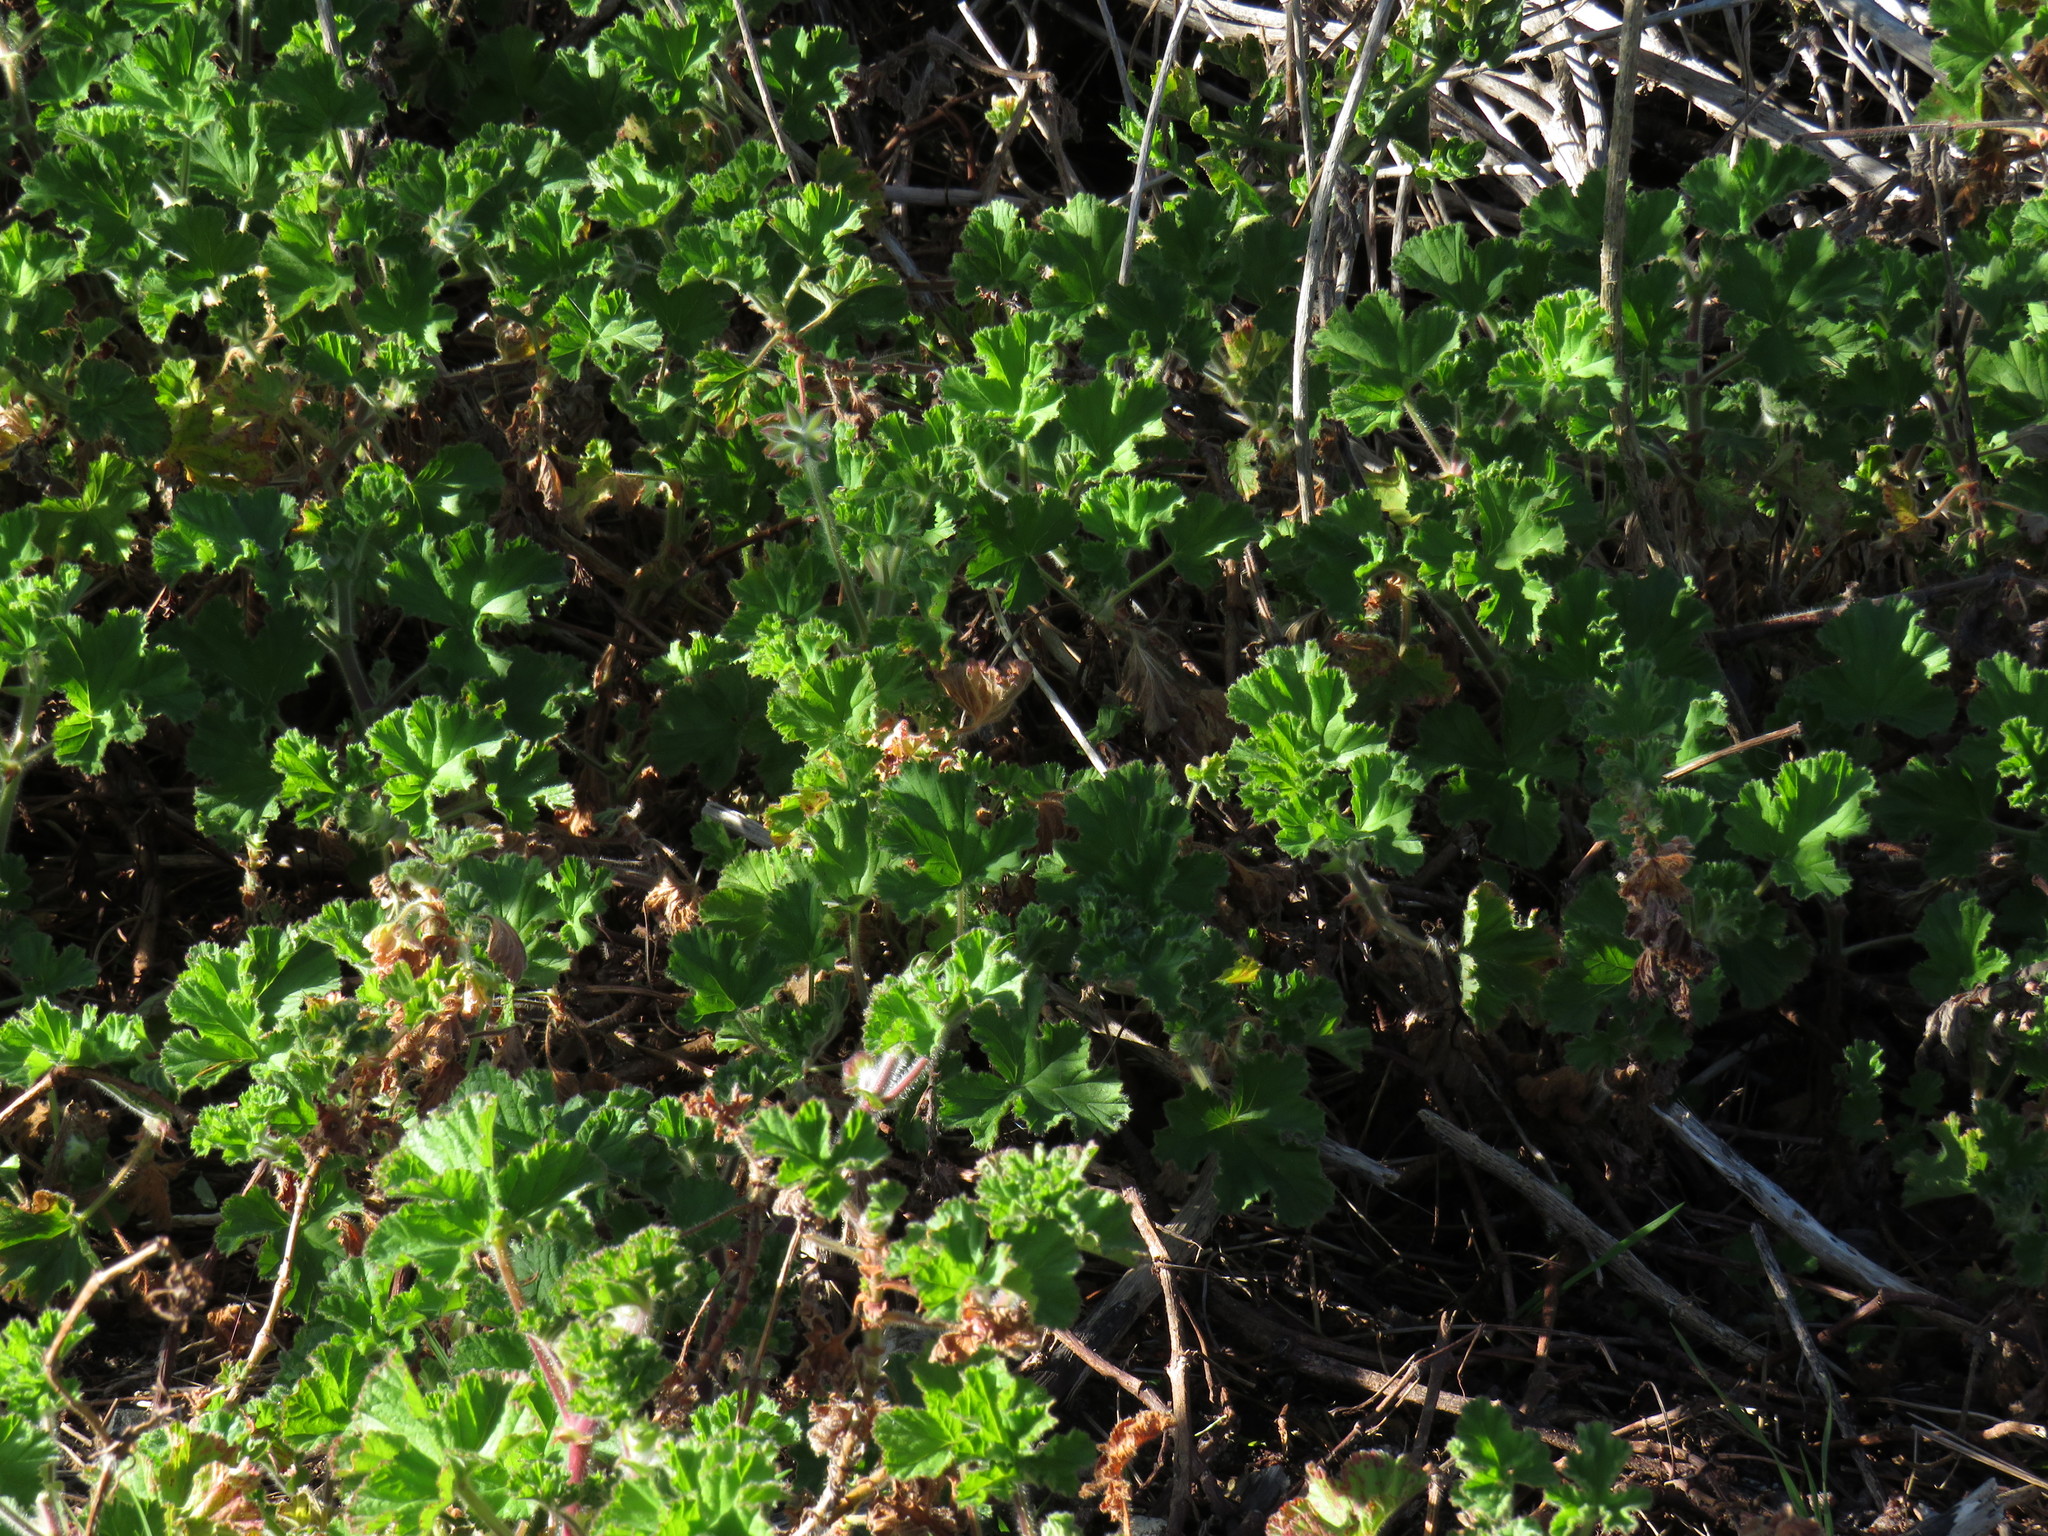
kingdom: Plantae
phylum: Tracheophyta
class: Magnoliopsida
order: Geraniales
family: Geraniaceae
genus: Pelargonium
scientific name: Pelargonium capitatum
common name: Rose scented geranium
